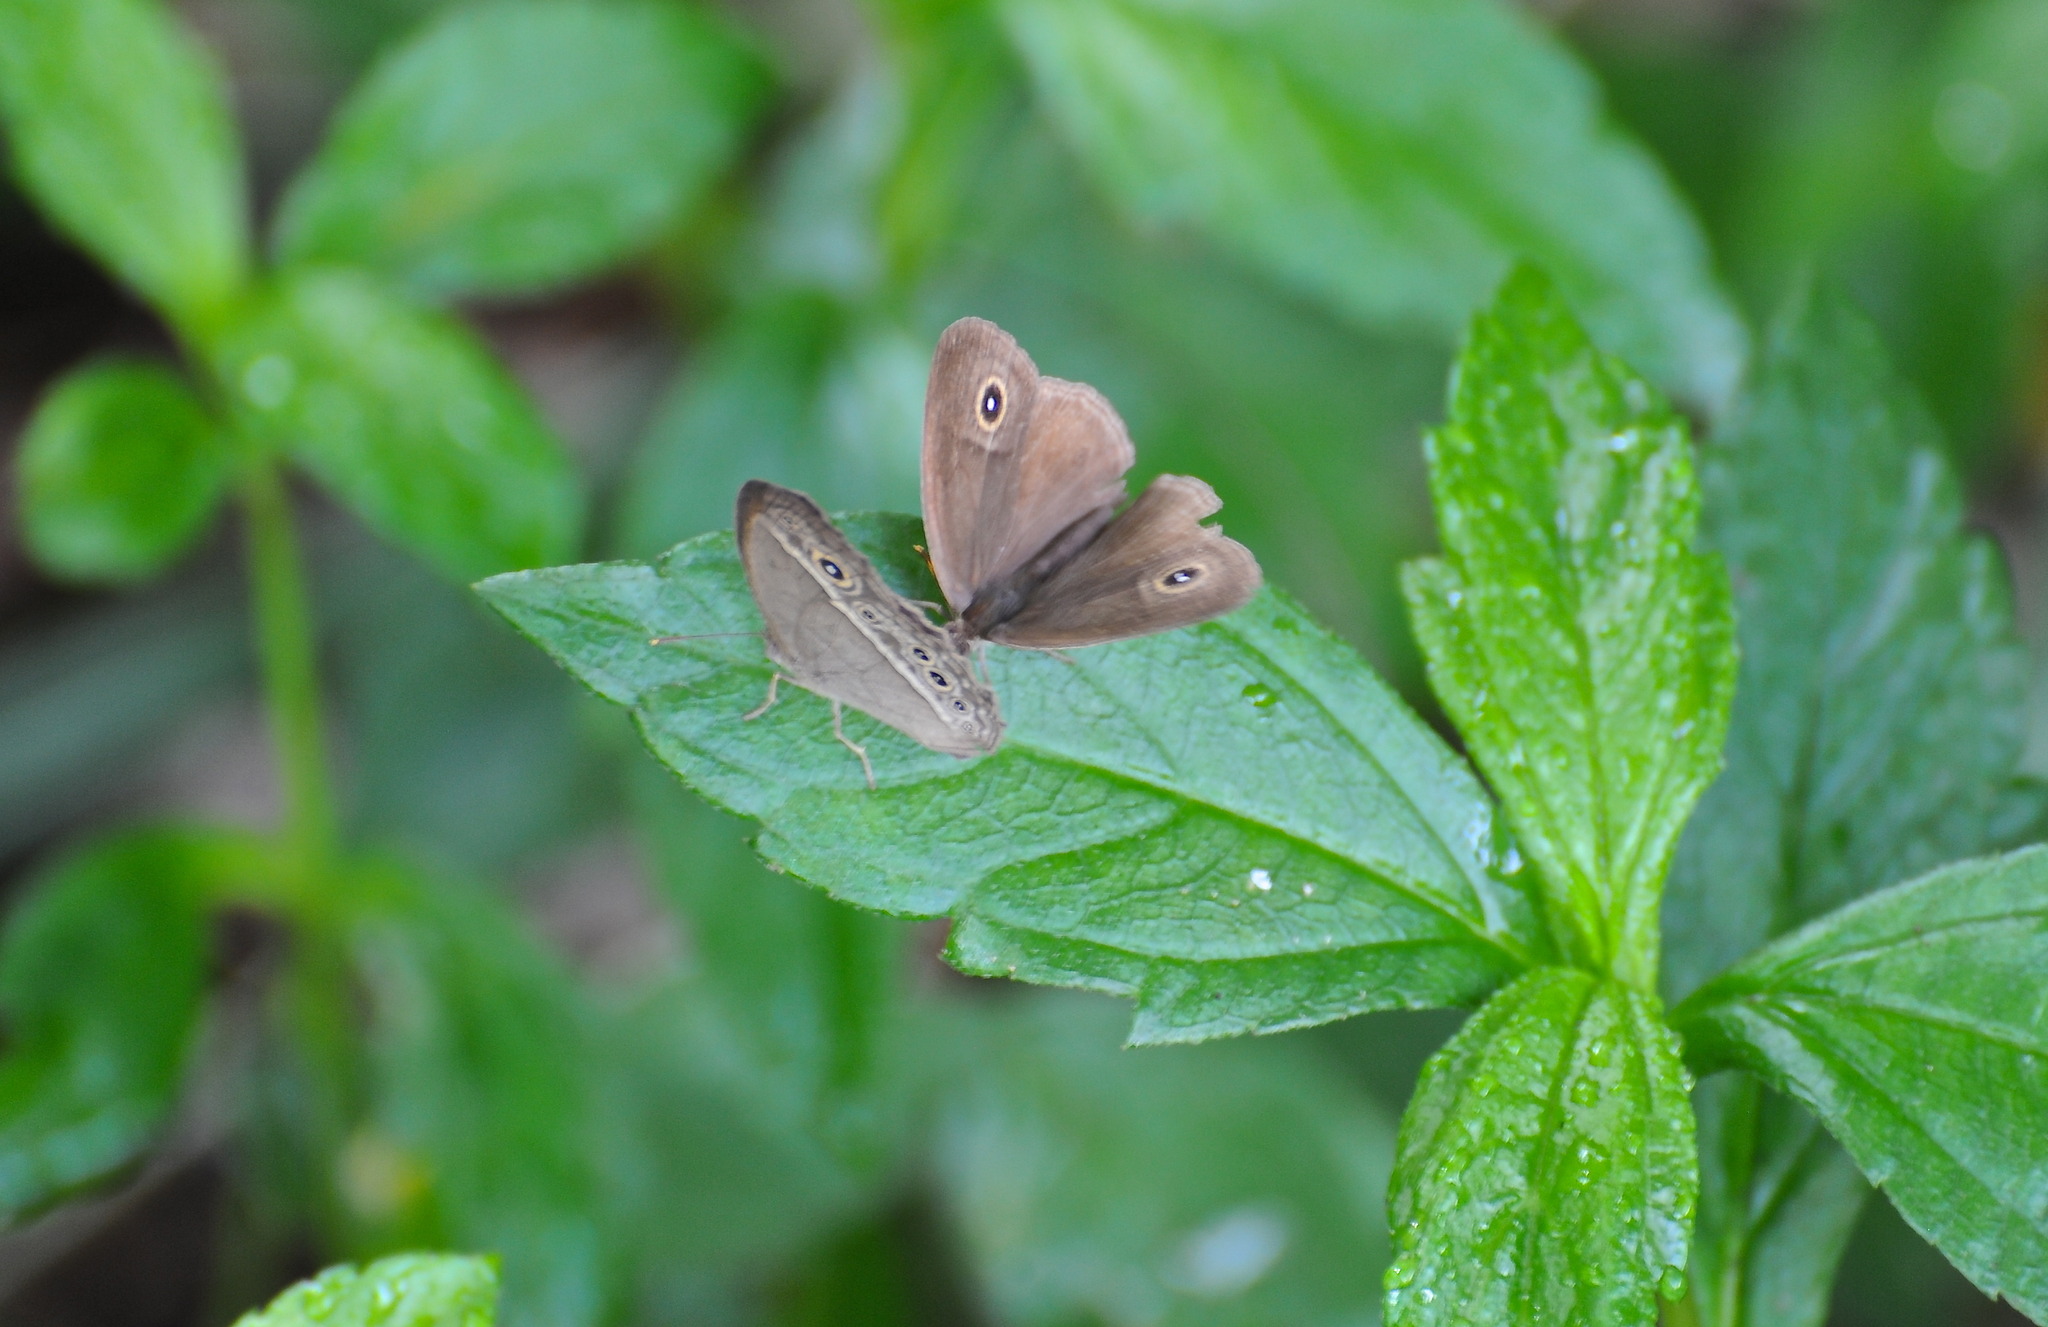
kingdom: Animalia
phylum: Arthropoda
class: Insecta
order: Lepidoptera
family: Nymphalidae
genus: Mycalesis
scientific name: Mycalesis mineus
